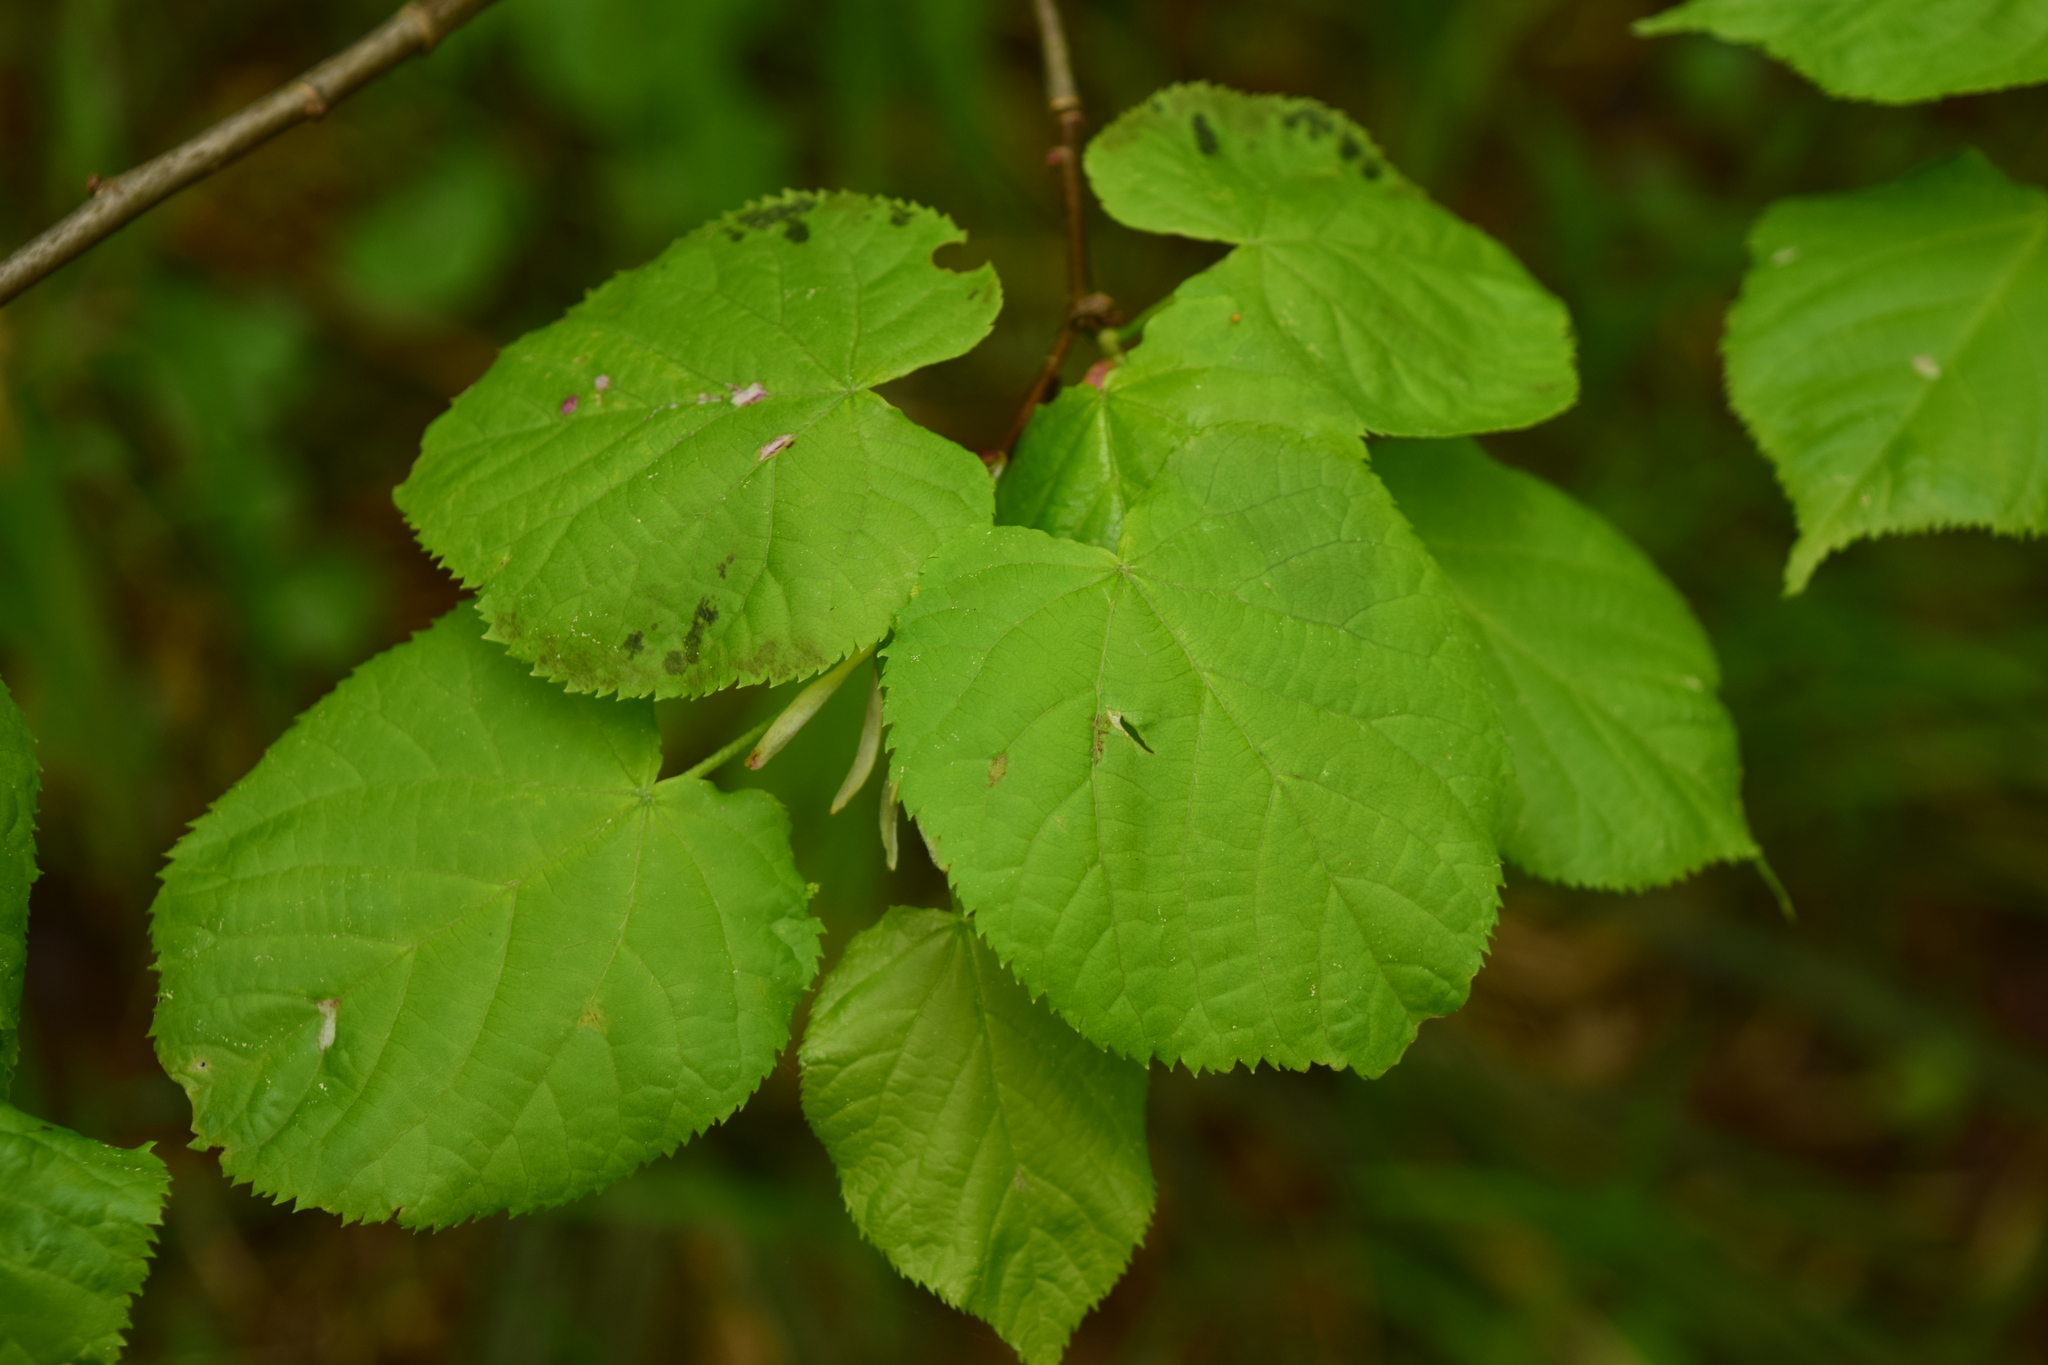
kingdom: Plantae
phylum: Tracheophyta
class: Magnoliopsida
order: Malvales
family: Malvaceae
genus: Tilia
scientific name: Tilia cordata
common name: Small-leaved lime
